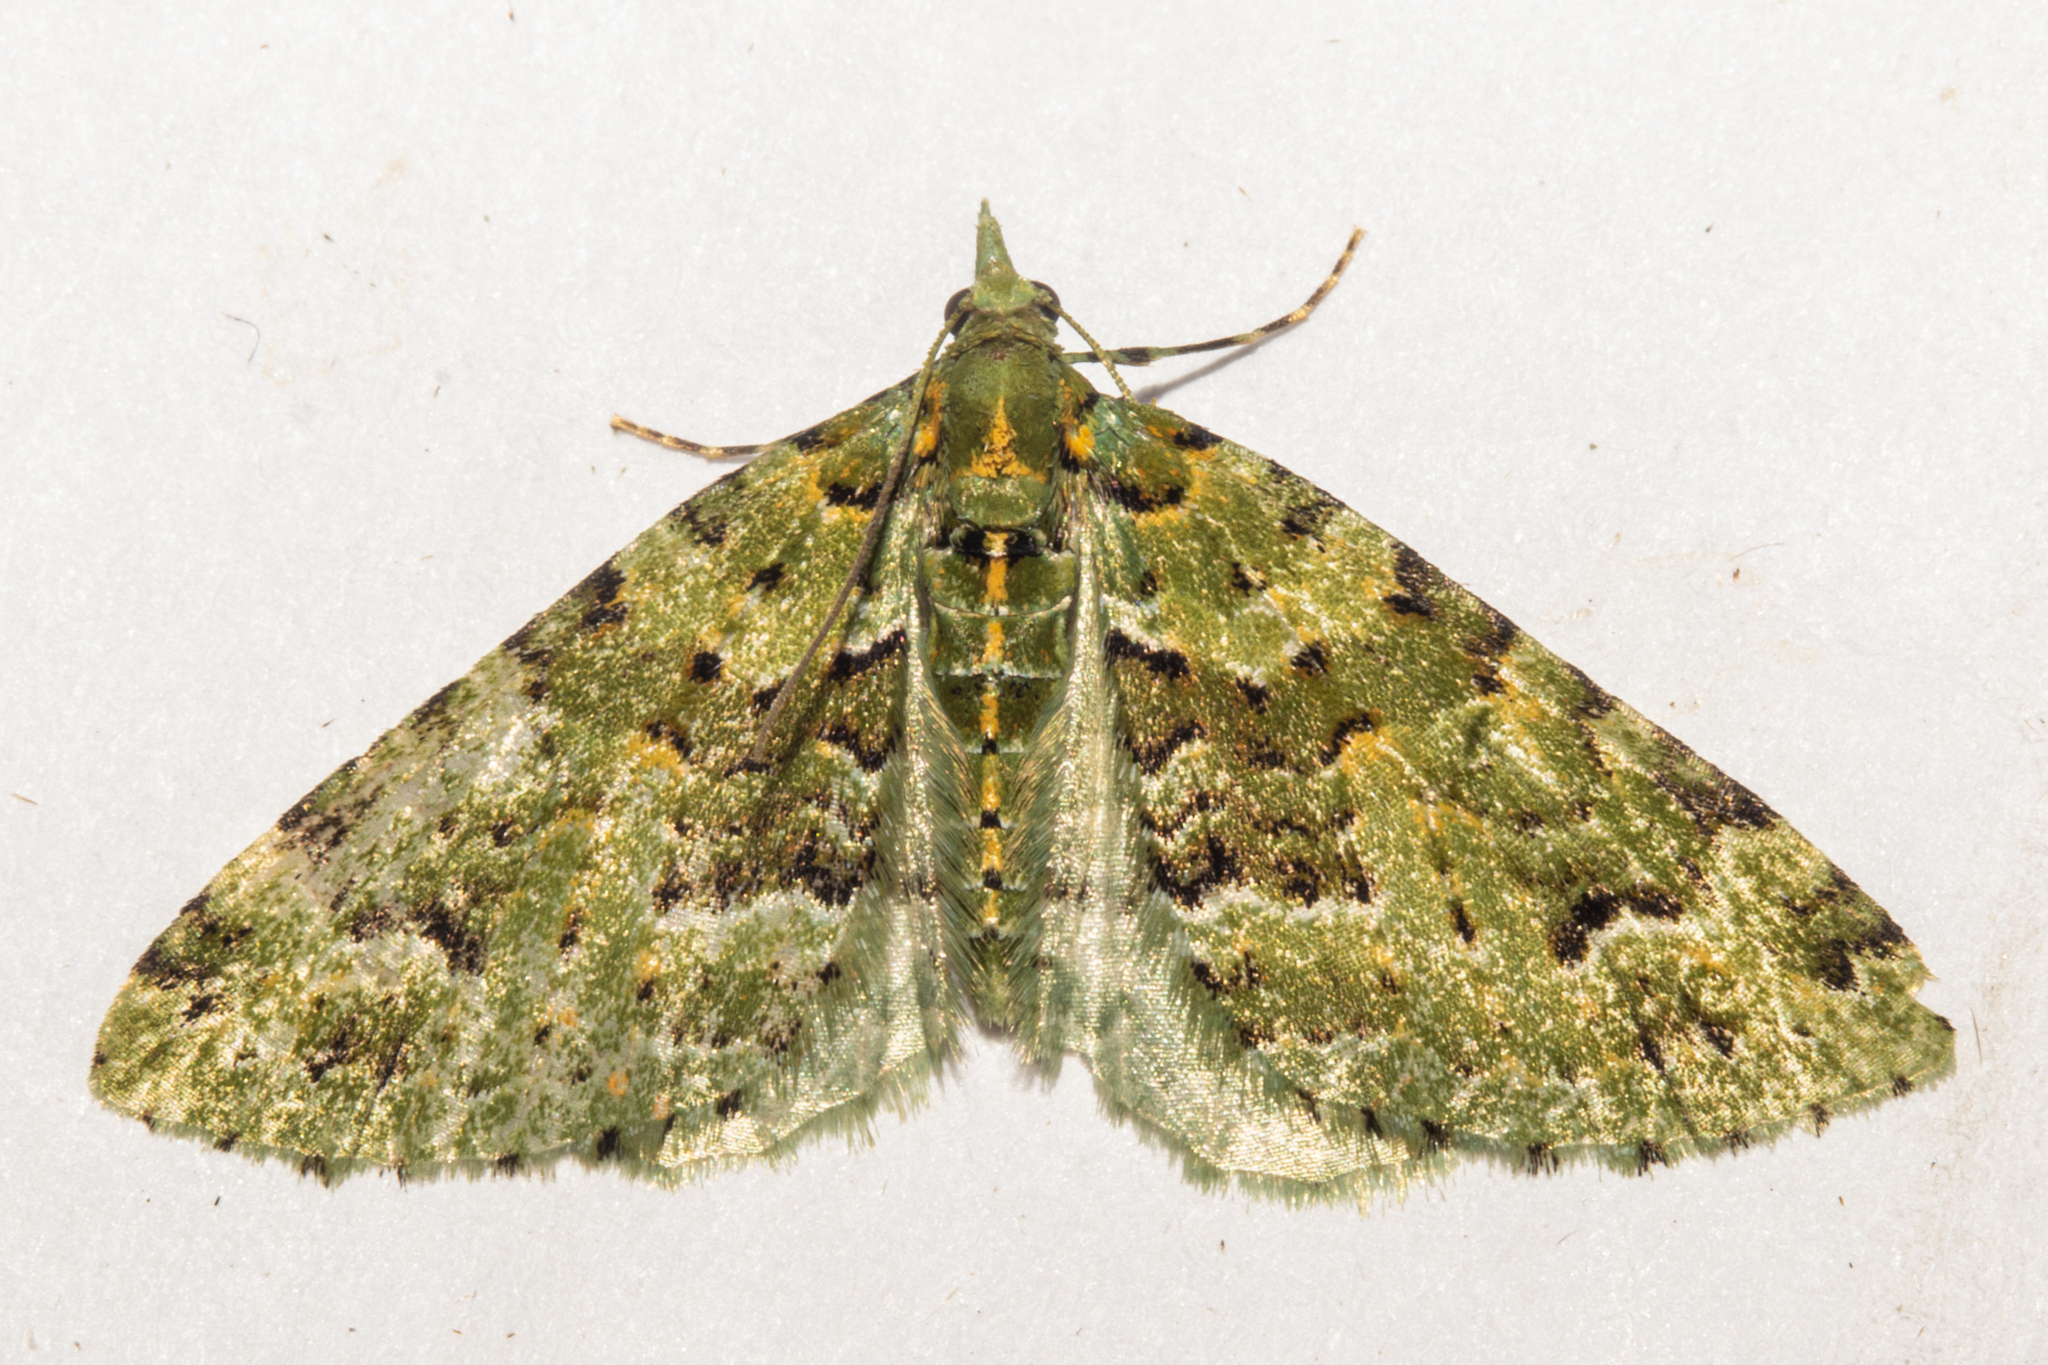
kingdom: Animalia
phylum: Arthropoda
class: Insecta
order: Lepidoptera
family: Geometridae
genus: Pasiphila
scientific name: Pasiphila melochlora
